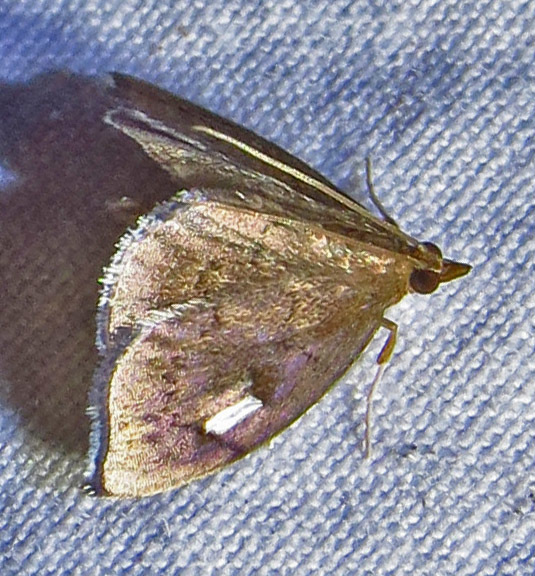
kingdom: Animalia
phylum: Arthropoda
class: Insecta
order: Lepidoptera
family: Crambidae
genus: Perispasta
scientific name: Perispasta caeculalis
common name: Titian peale's moth
